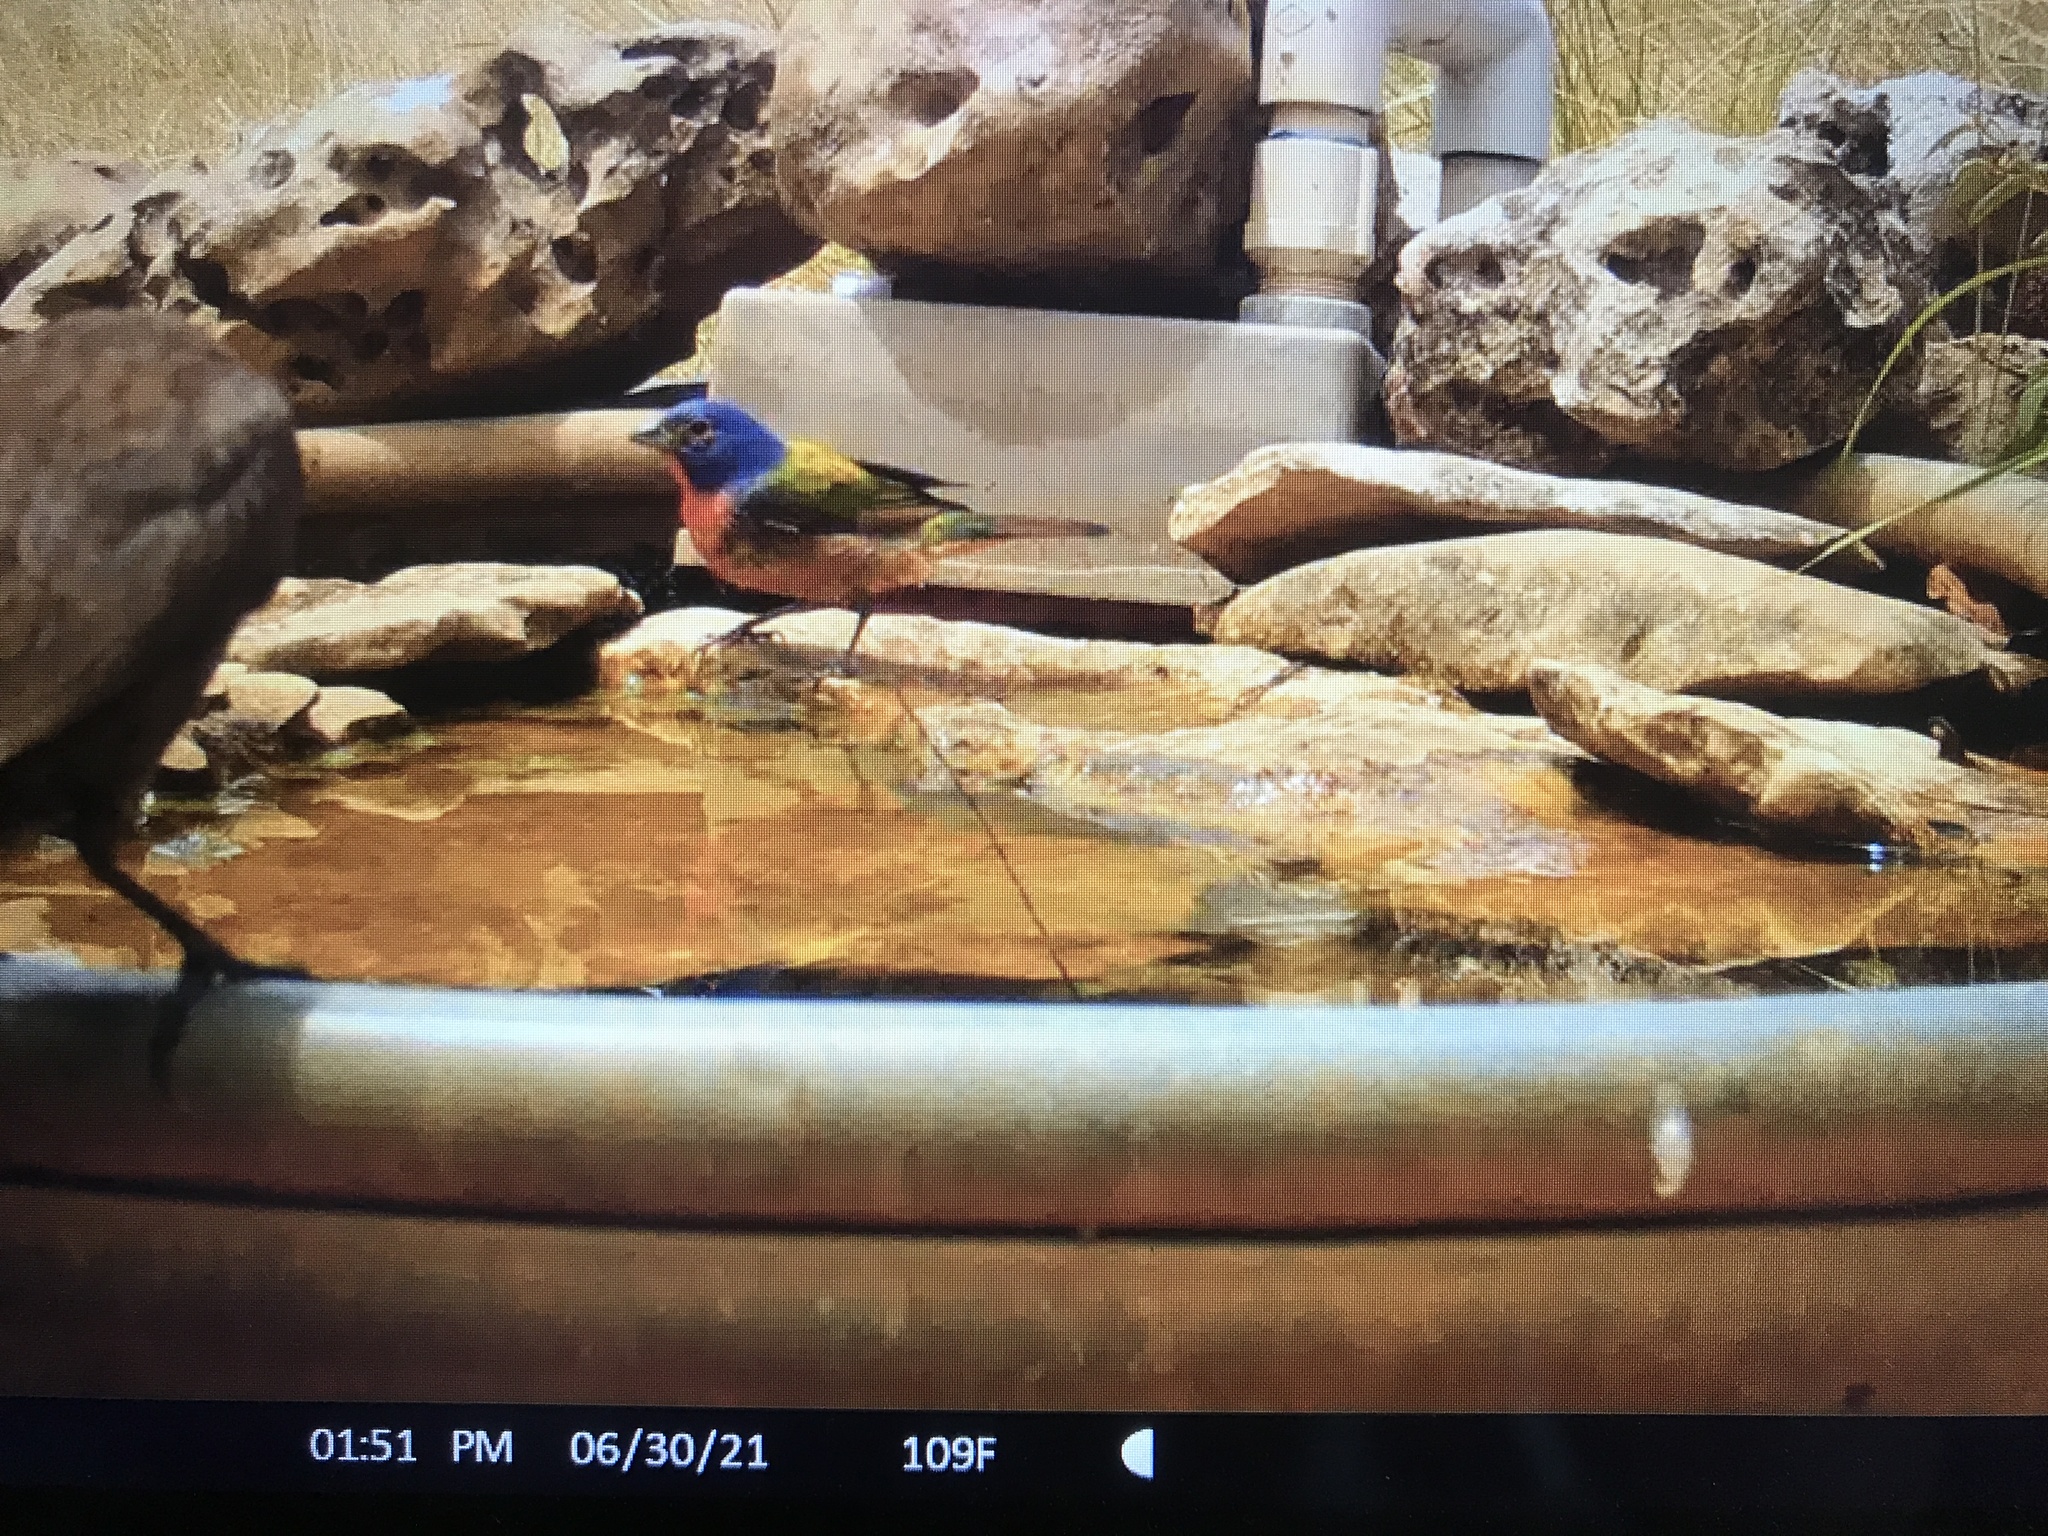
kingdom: Animalia
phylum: Chordata
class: Aves
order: Passeriformes
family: Cardinalidae
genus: Passerina
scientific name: Passerina ciris
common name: Painted bunting
